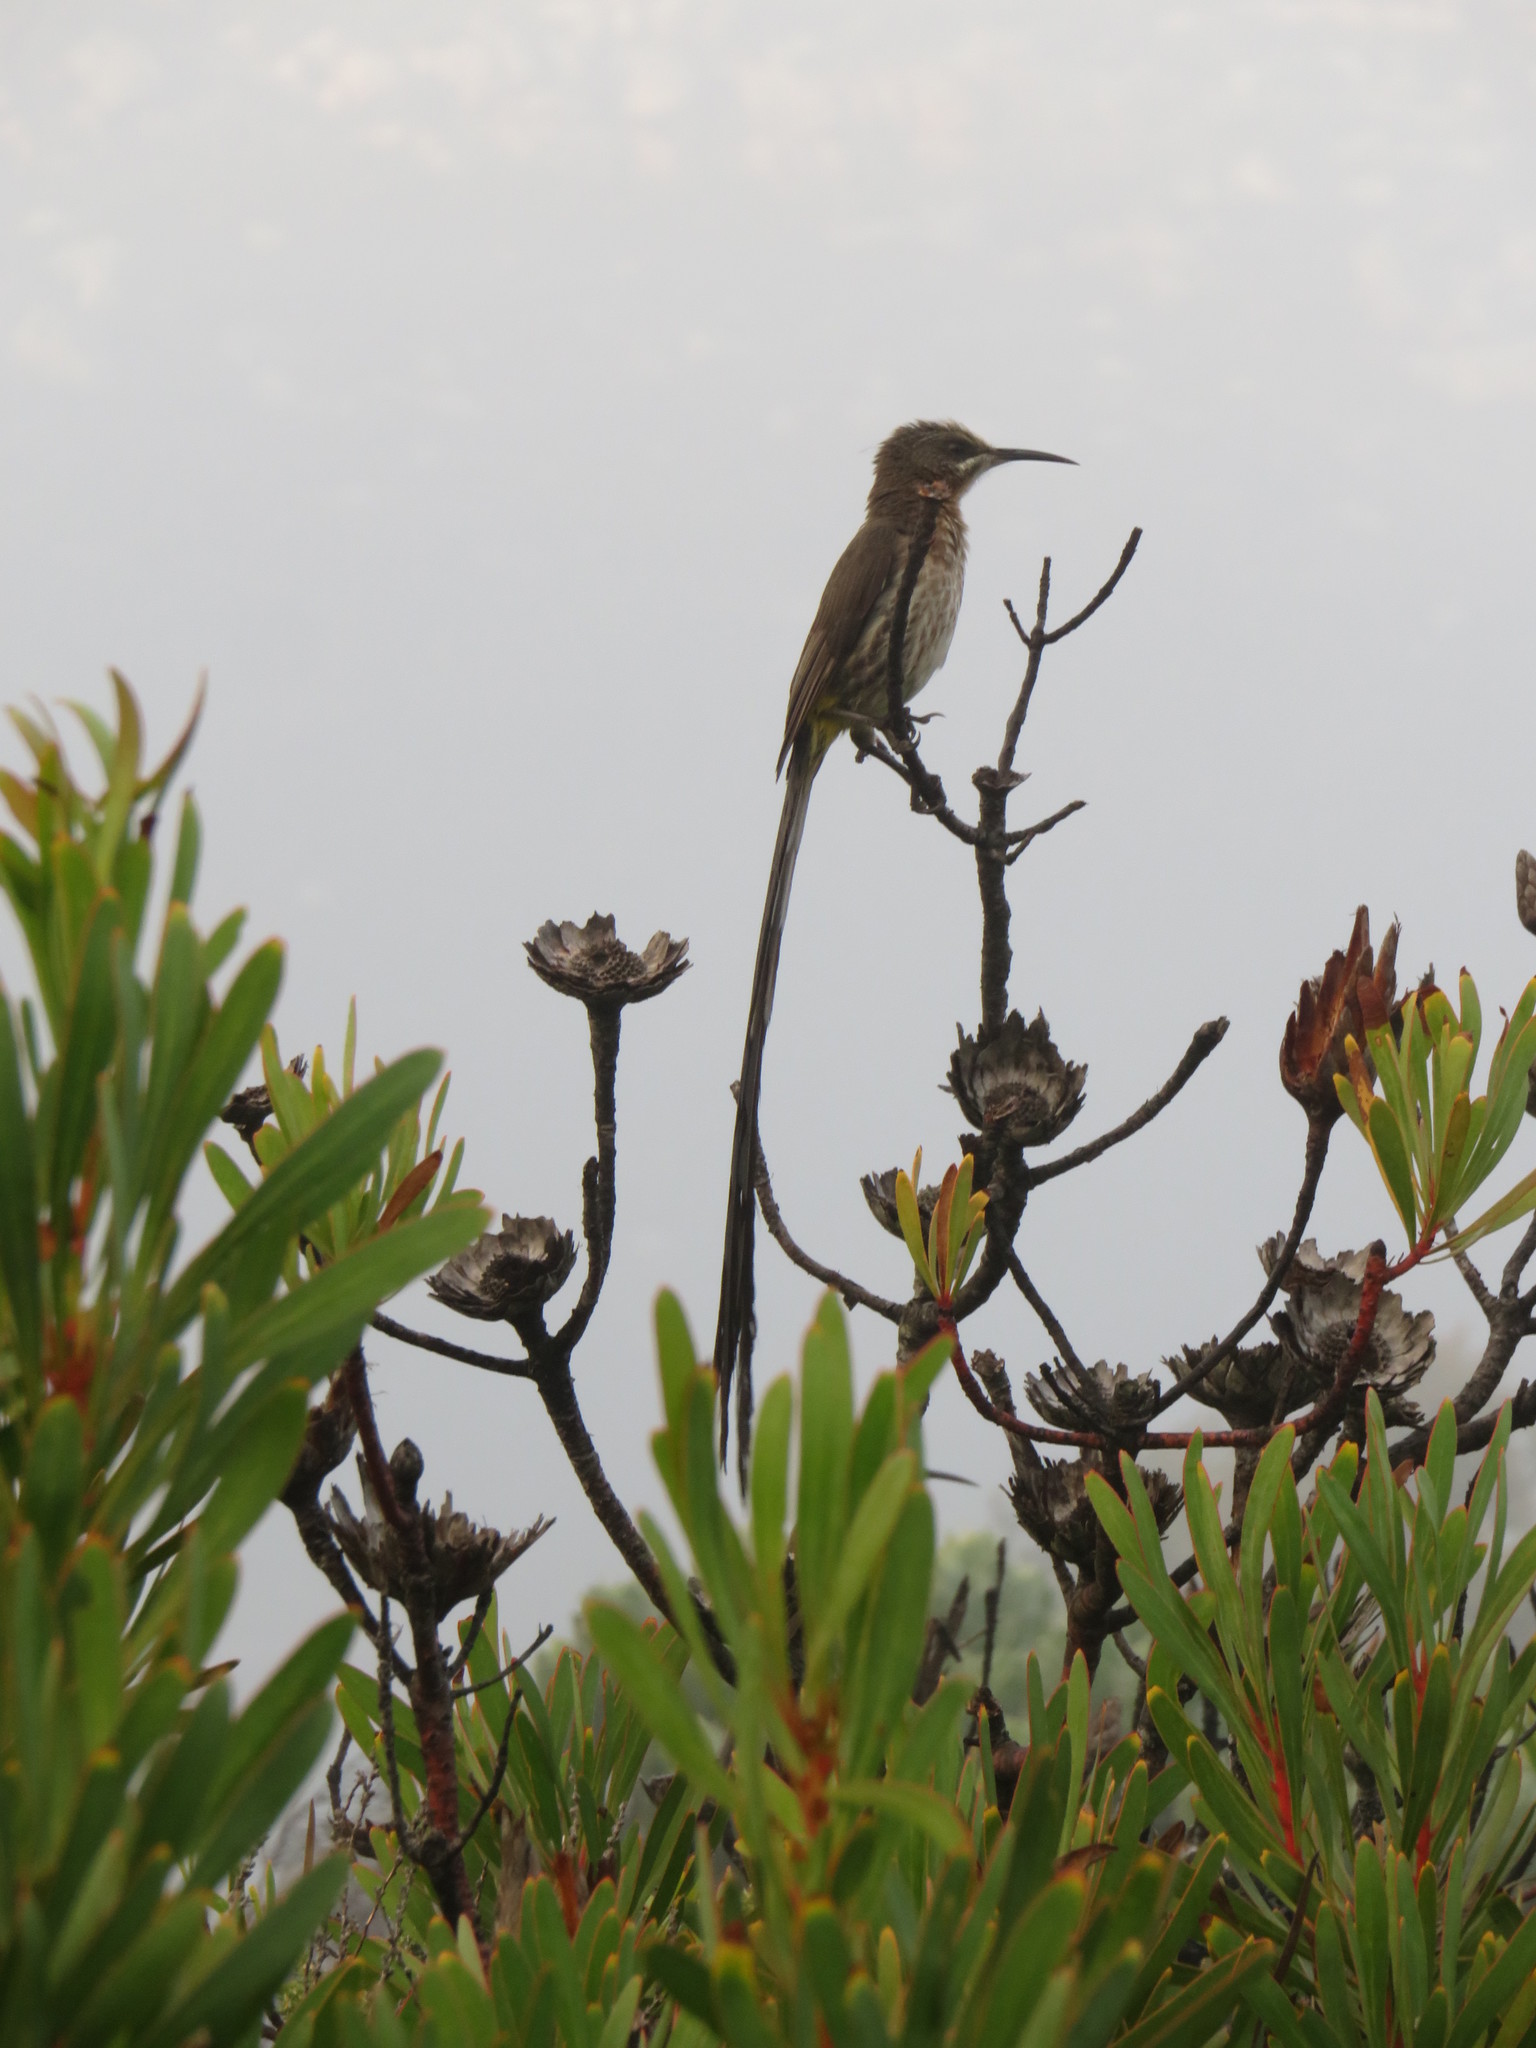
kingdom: Animalia
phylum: Chordata
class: Aves
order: Passeriformes
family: Promeropidae
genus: Promerops
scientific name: Promerops cafer
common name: Cape sugarbird
